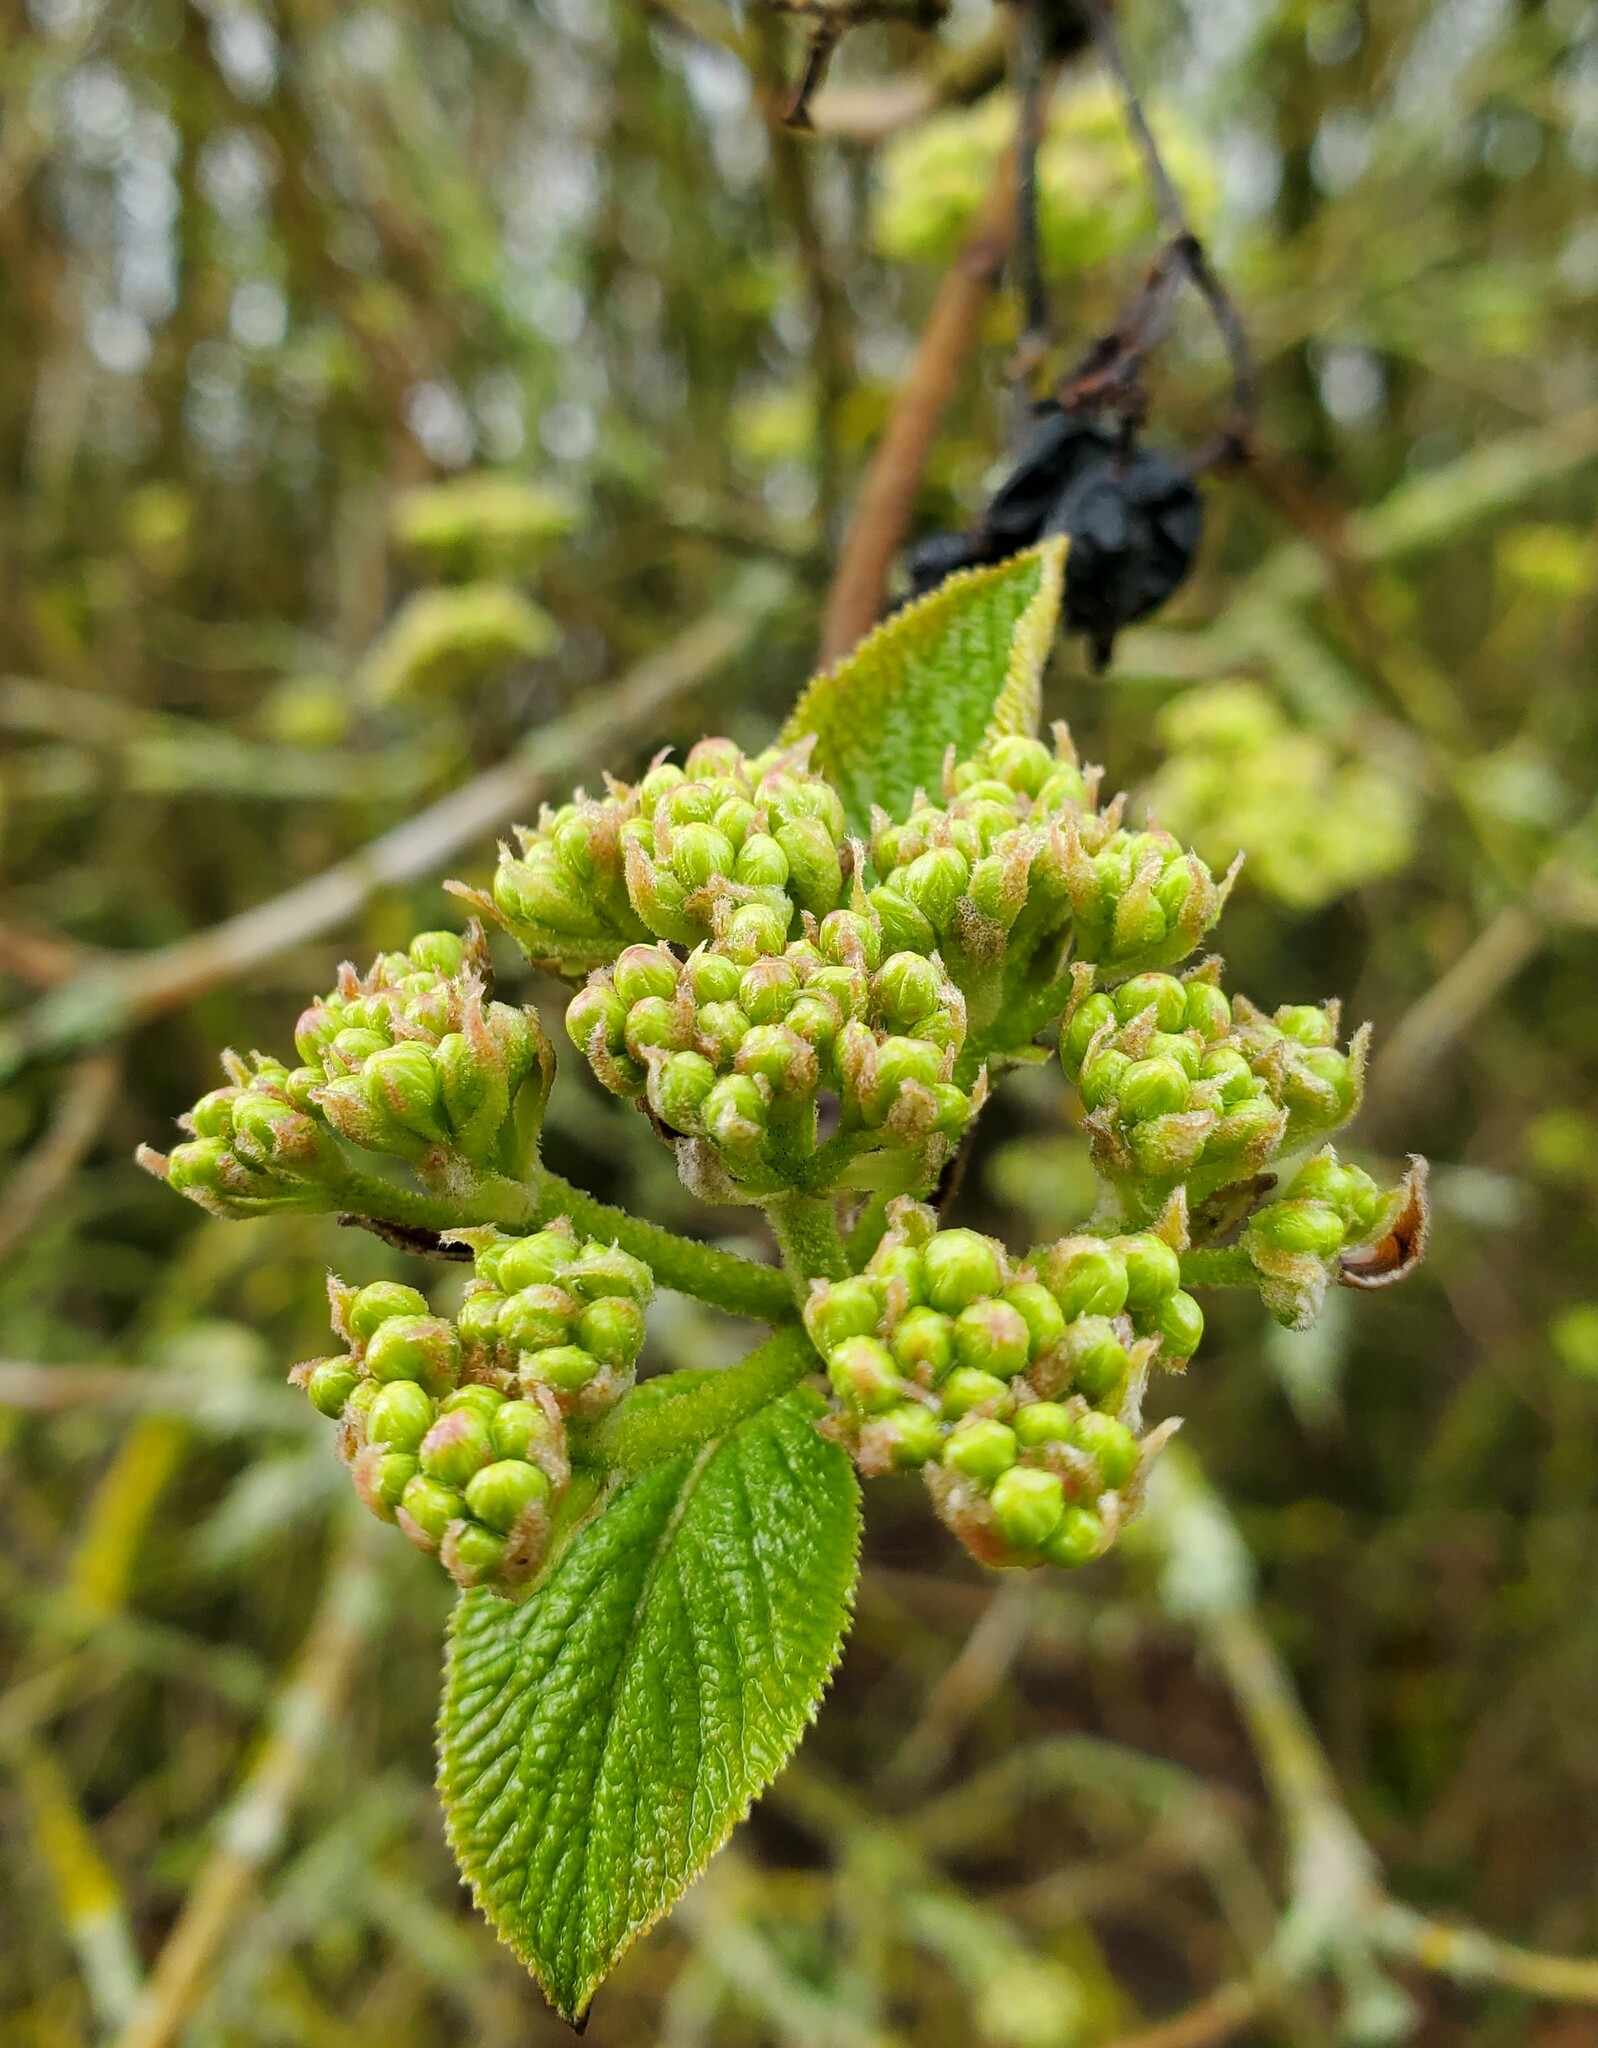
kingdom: Plantae
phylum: Tracheophyta
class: Magnoliopsida
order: Dipsacales
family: Viburnaceae
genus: Viburnum
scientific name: Viburnum lantana
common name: Wayfaring tree
